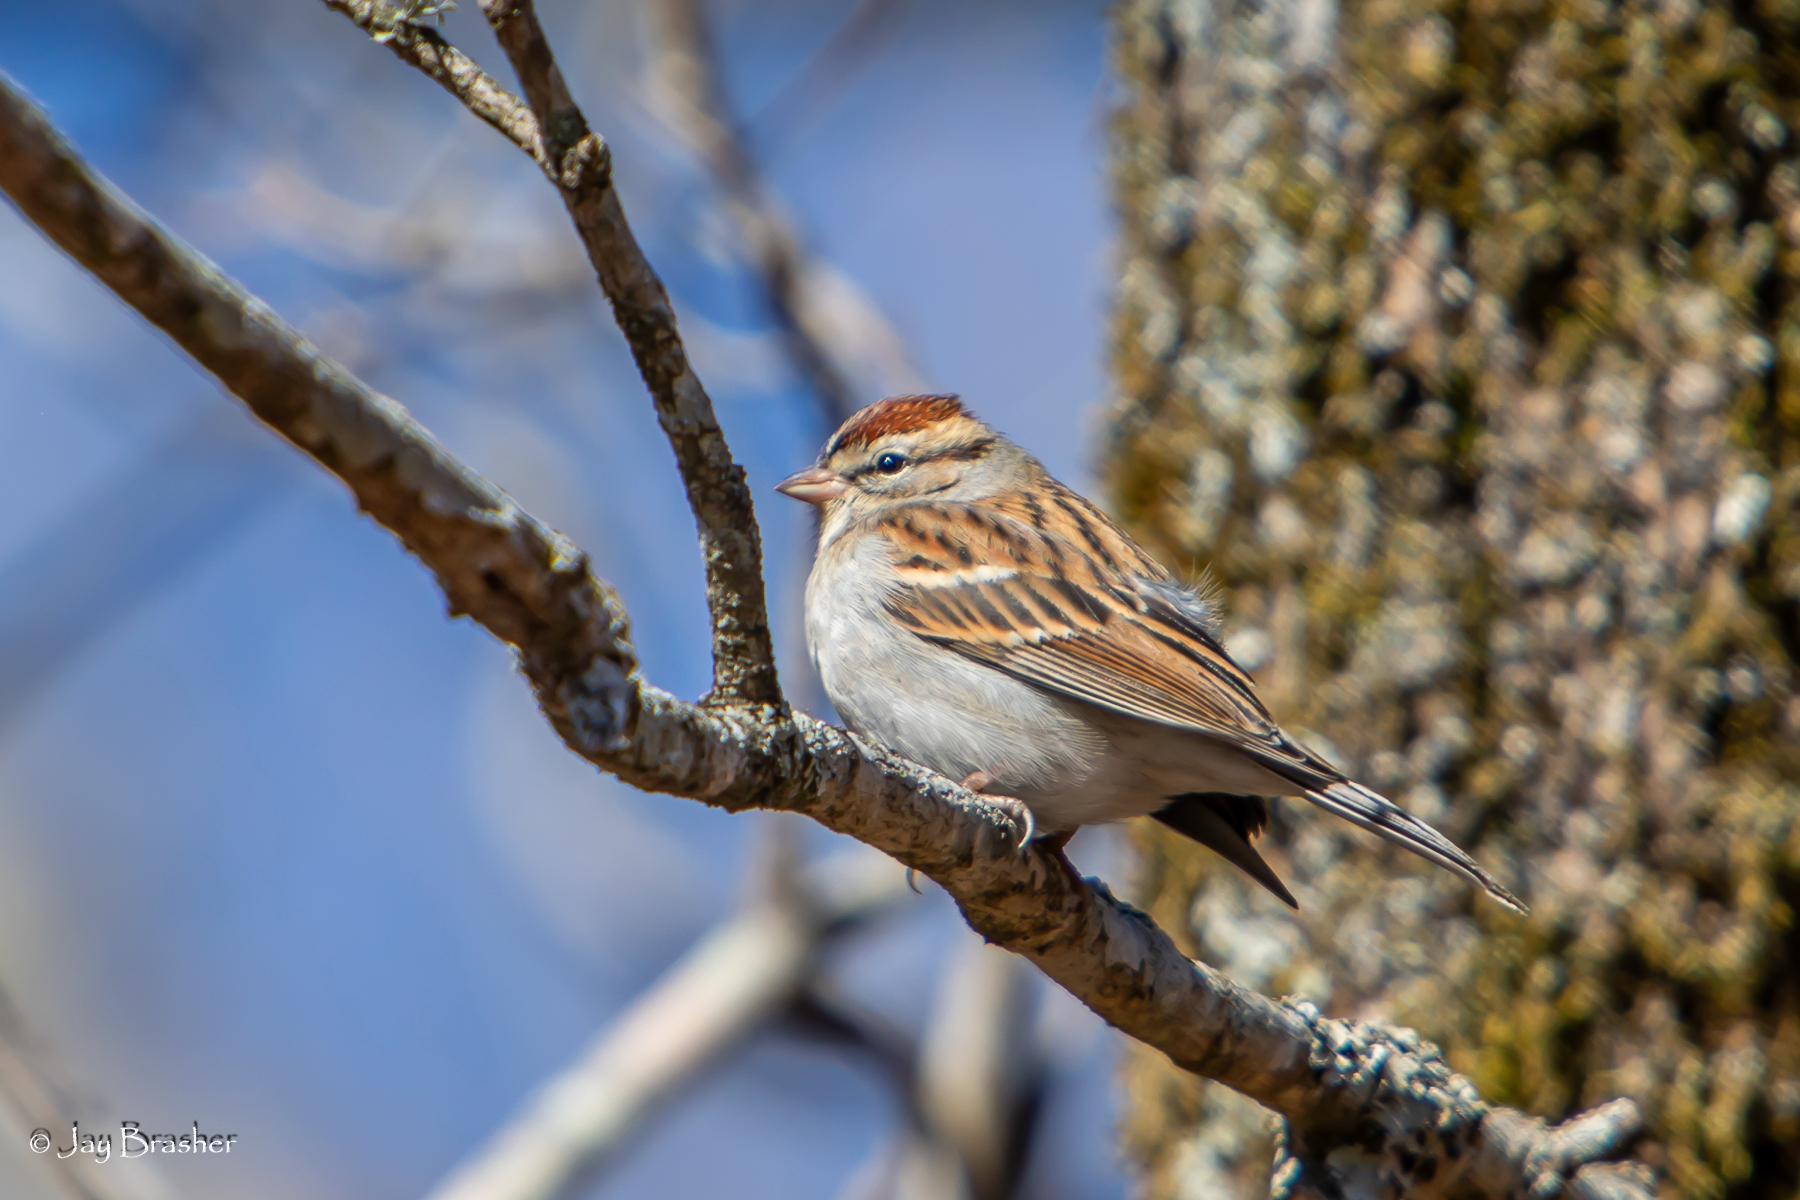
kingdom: Animalia
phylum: Chordata
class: Aves
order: Passeriformes
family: Passerellidae
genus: Spizella
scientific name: Spizella passerina
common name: Chipping sparrow
